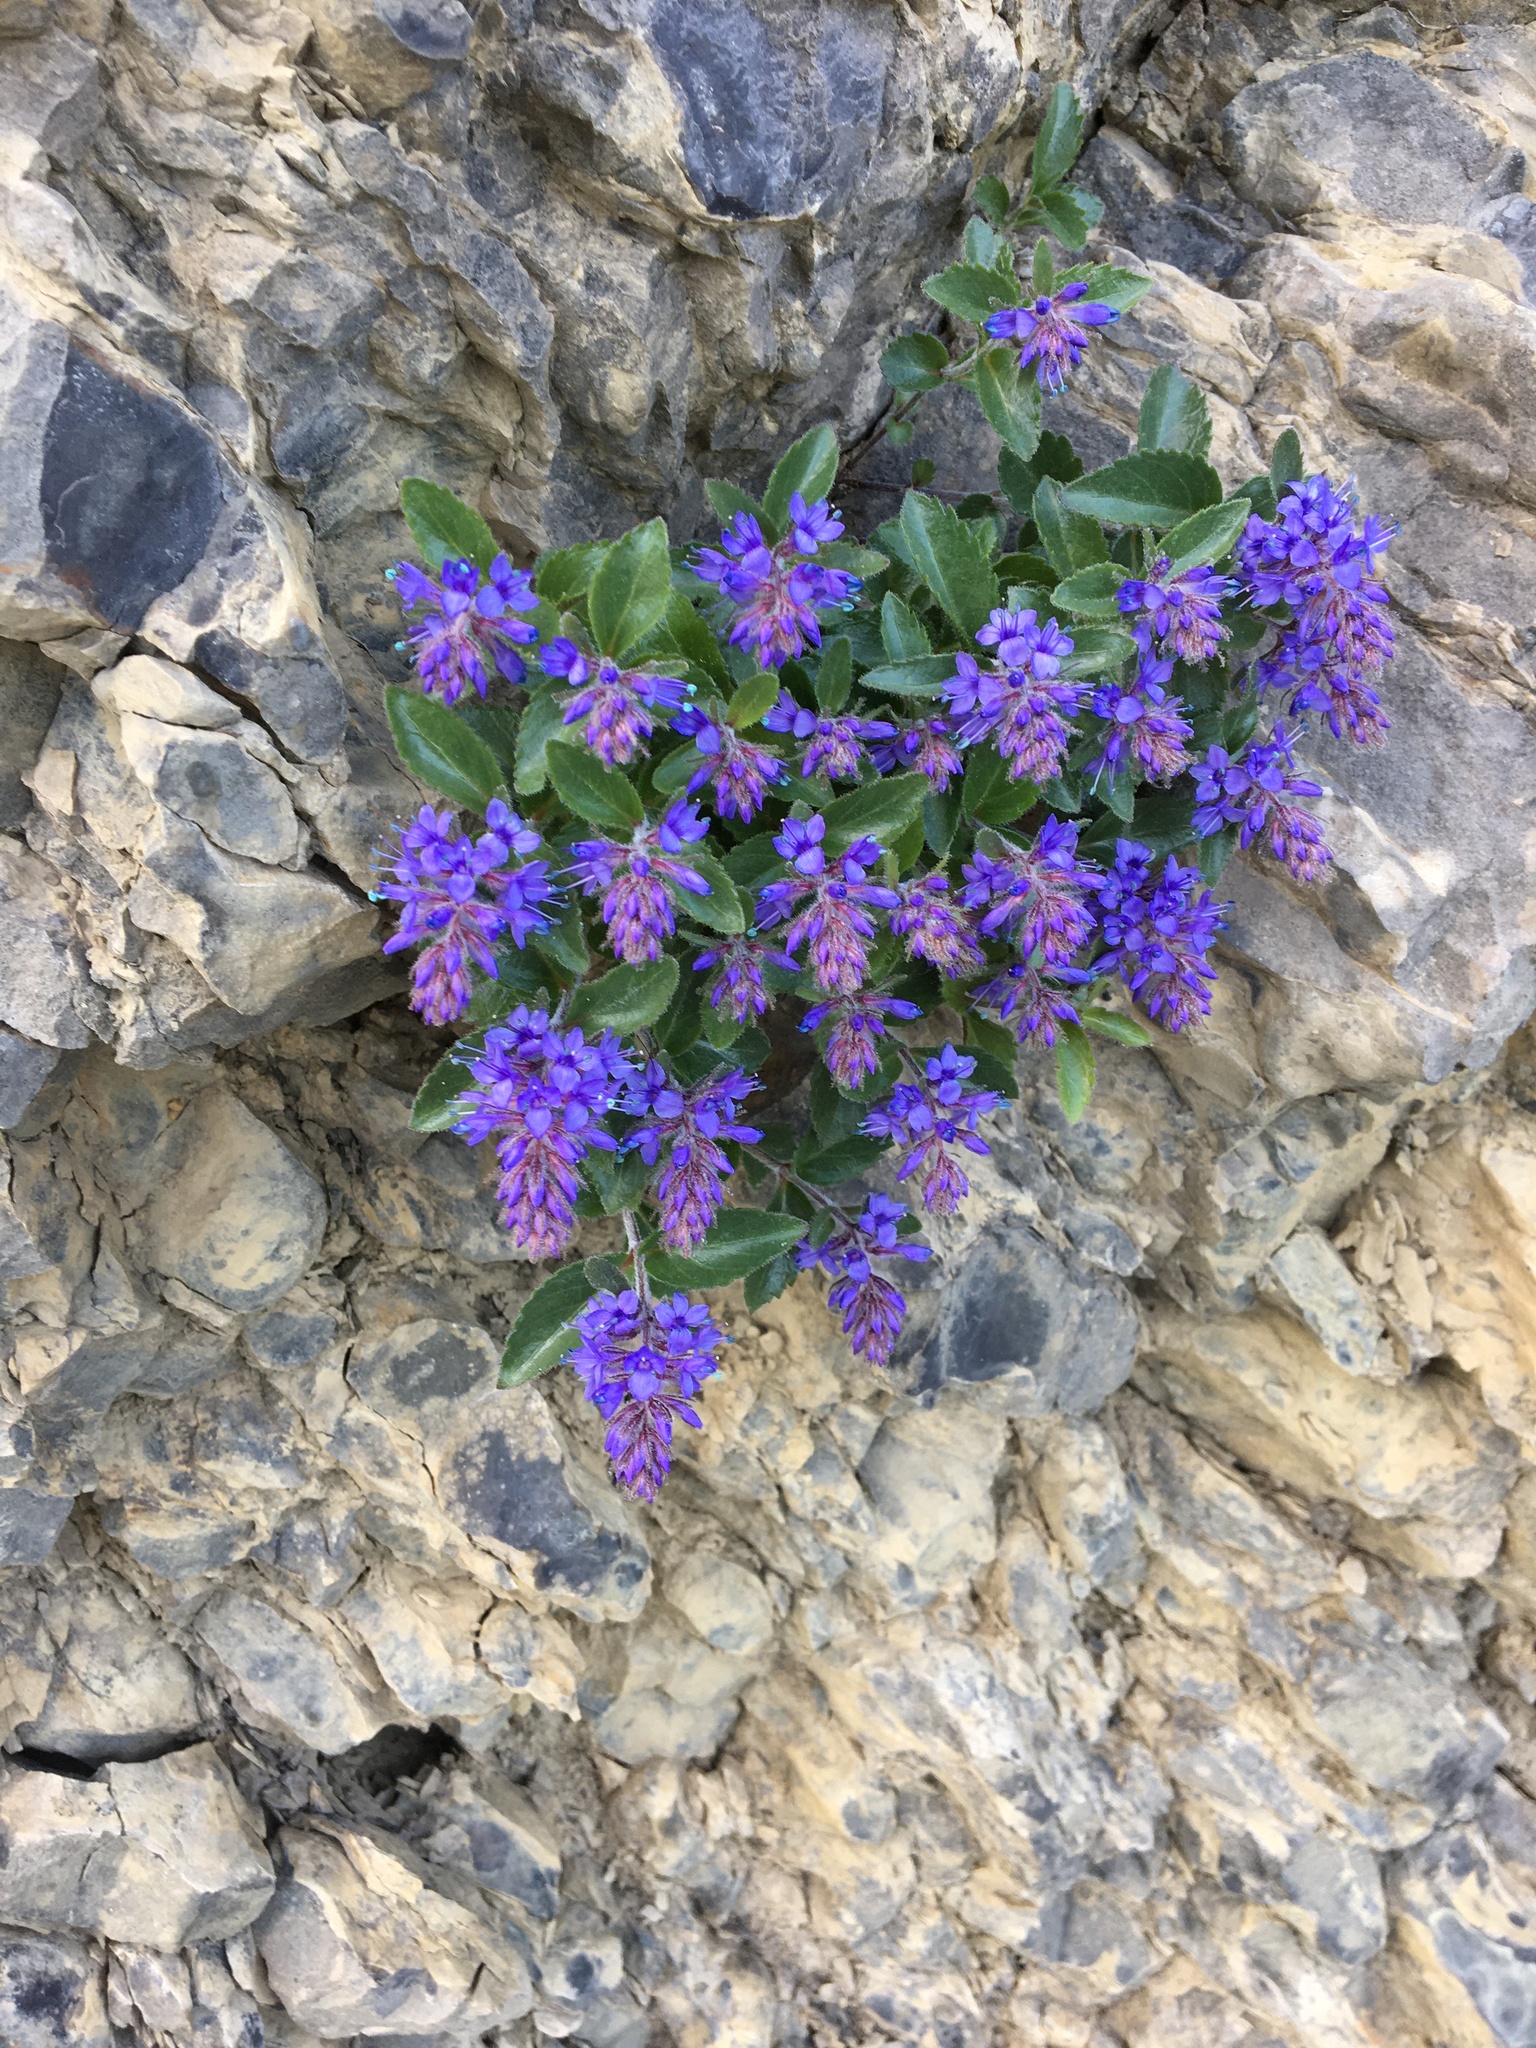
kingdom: Plantae
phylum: Tracheophyta
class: Magnoliopsida
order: Lamiales
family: Plantaginaceae
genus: Paederota
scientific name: Paederota bonarota
